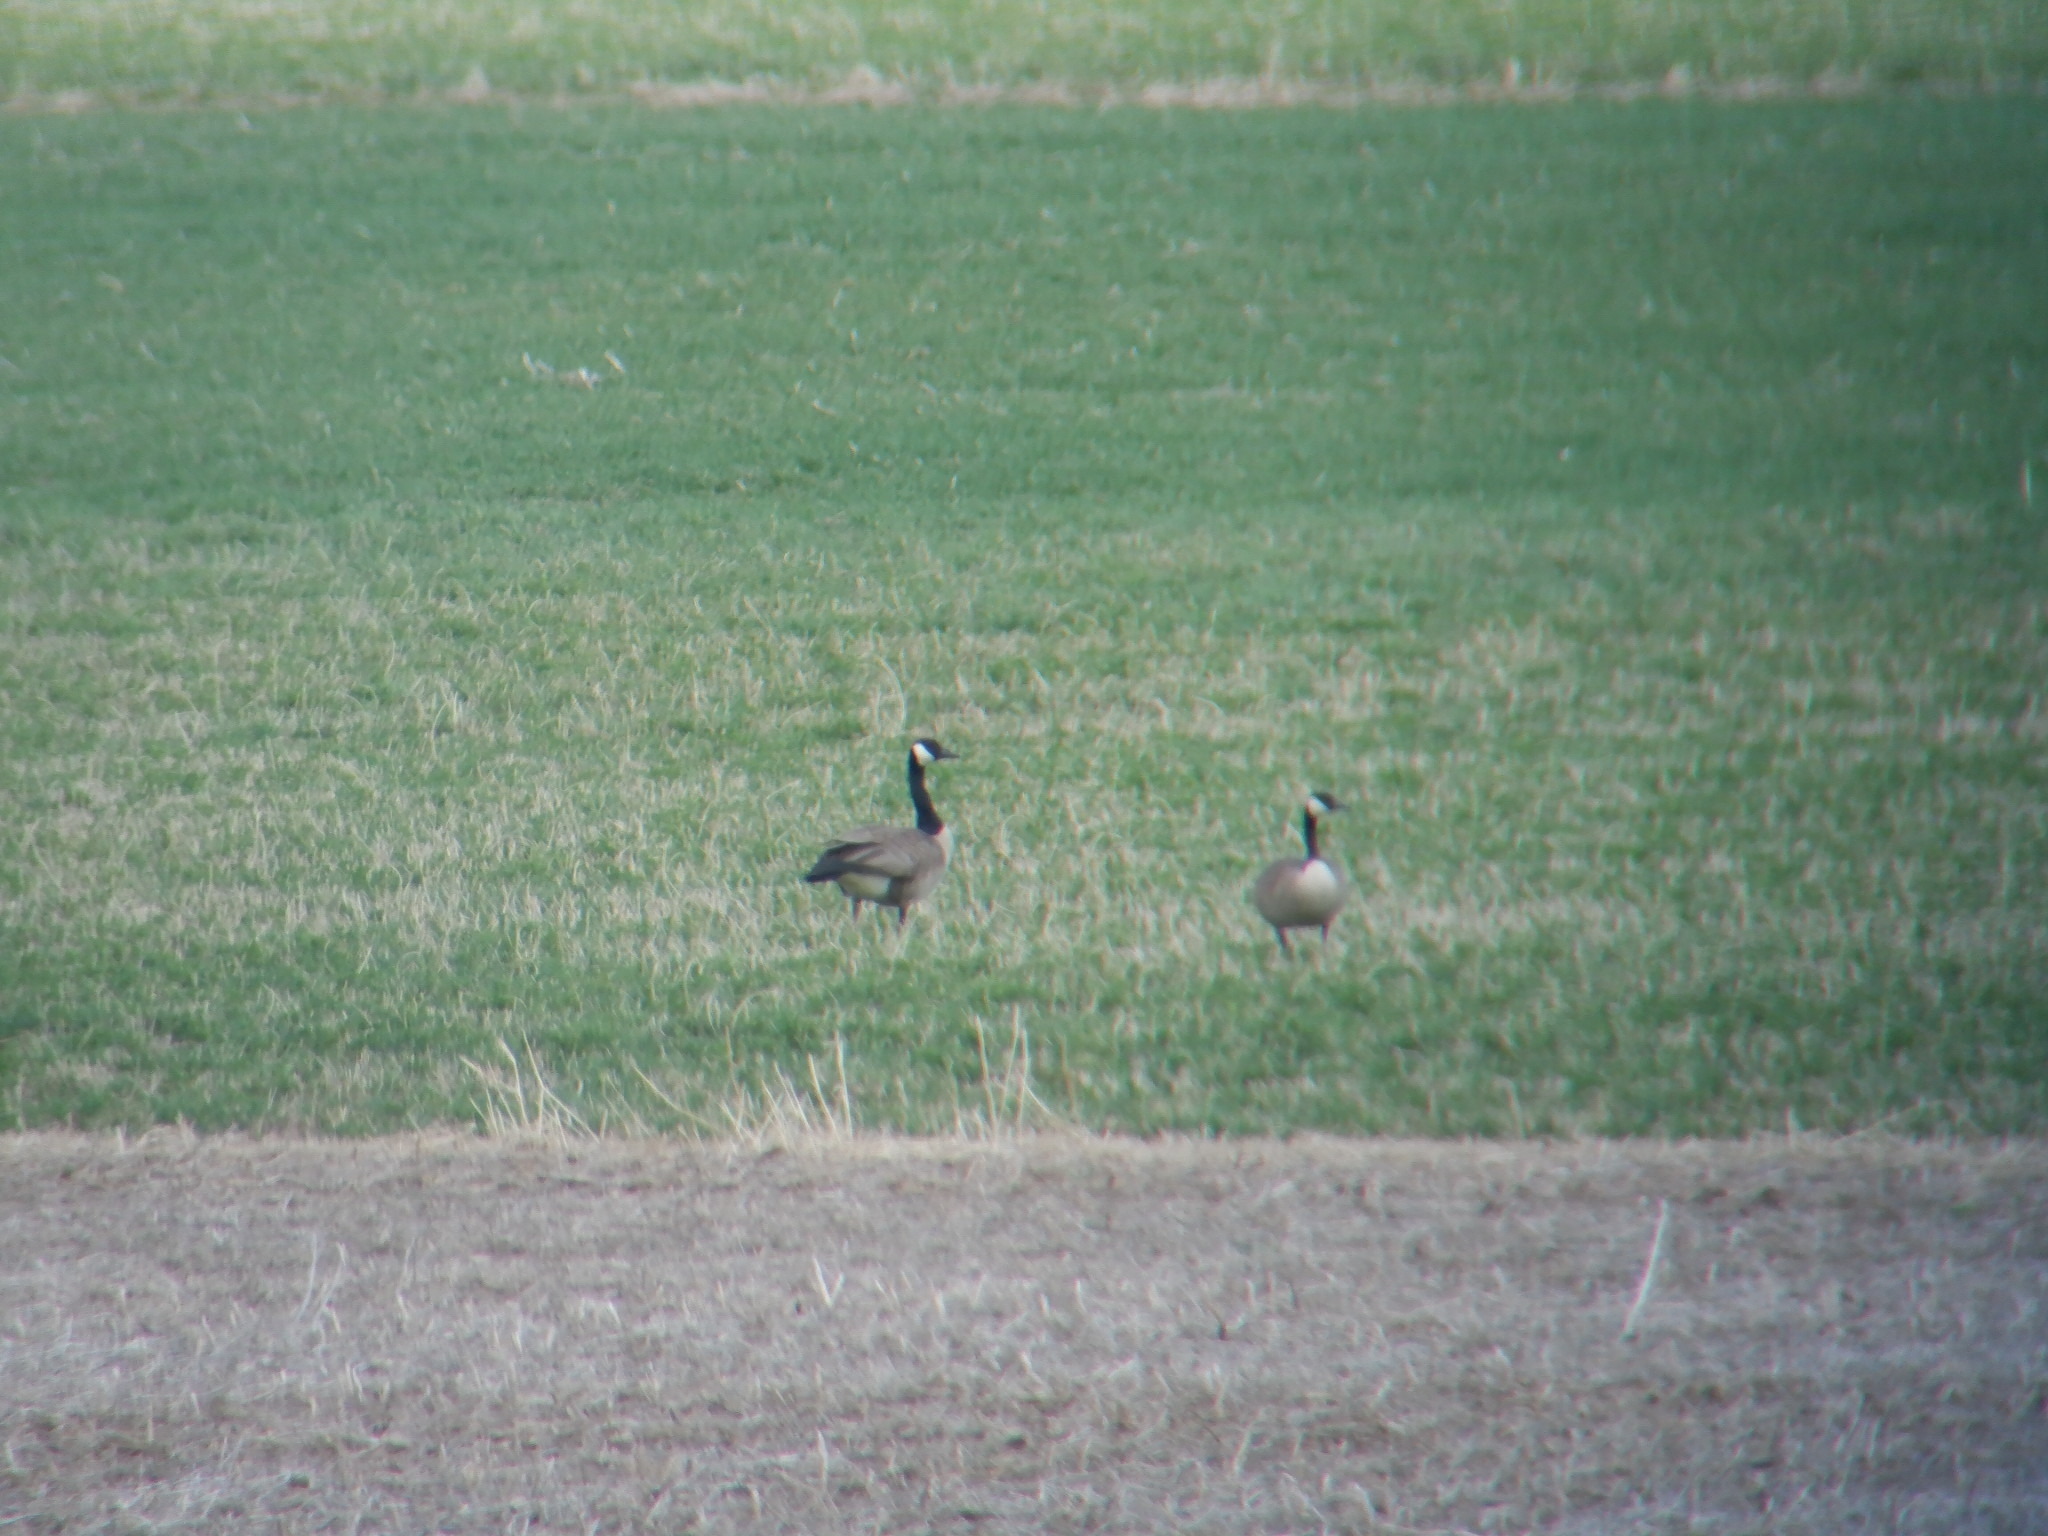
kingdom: Animalia
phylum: Chordata
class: Aves
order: Anseriformes
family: Anatidae
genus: Branta
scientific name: Branta canadensis
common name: Canada goose
